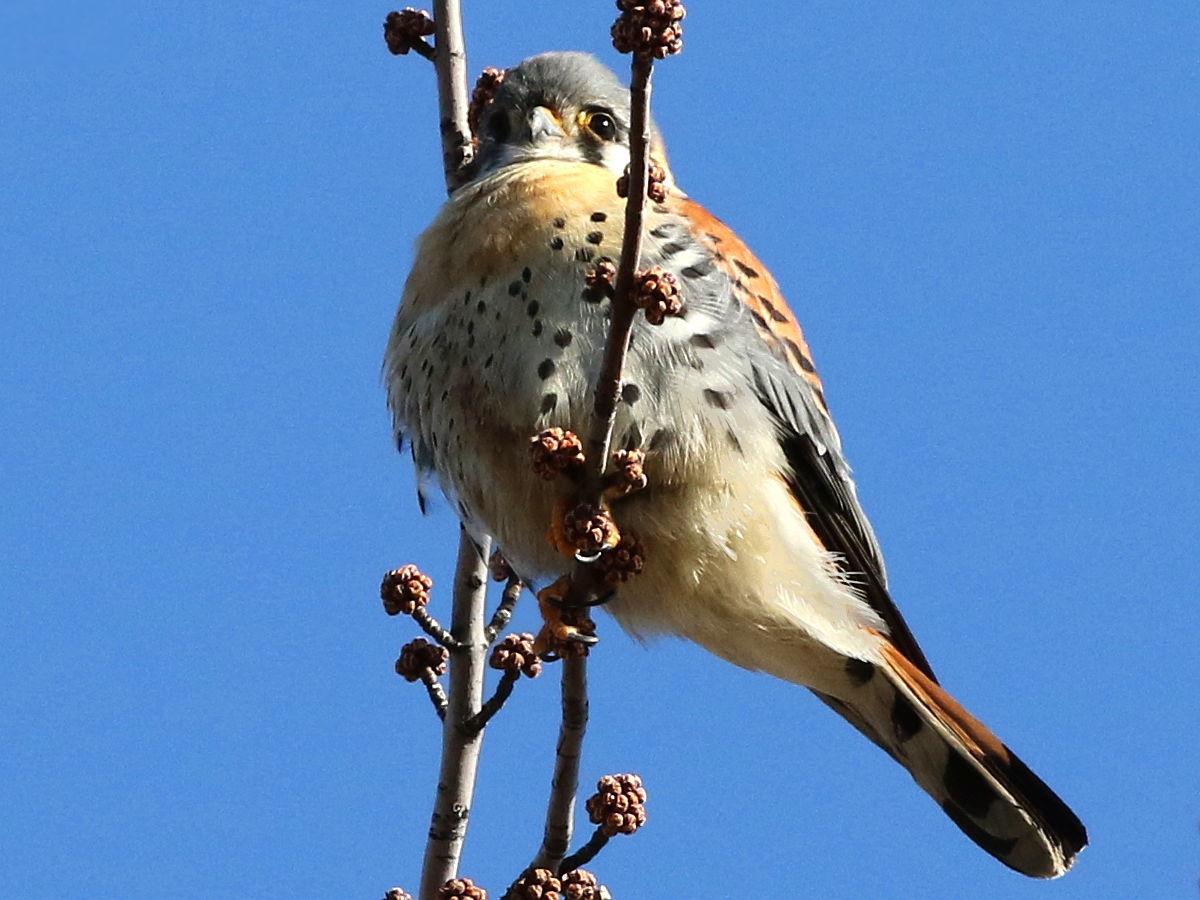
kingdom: Animalia
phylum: Chordata
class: Aves
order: Falconiformes
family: Falconidae
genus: Falco
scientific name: Falco sparverius
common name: American kestrel
